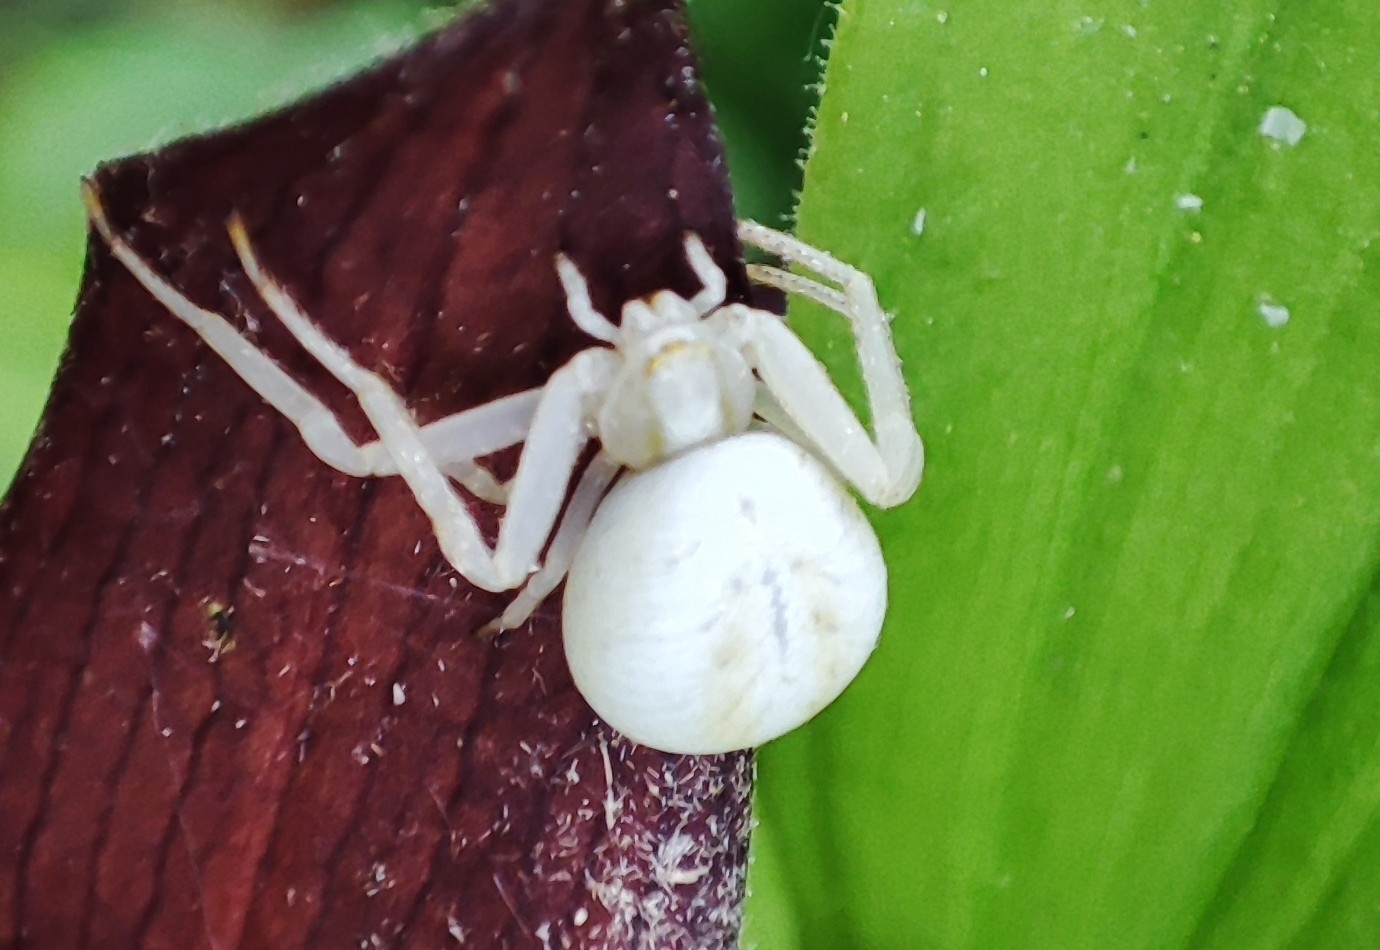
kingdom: Animalia
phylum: Arthropoda
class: Arachnida
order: Araneae
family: Thomisidae
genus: Misumena
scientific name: Misumena vatia
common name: Goldenrod crab spider
